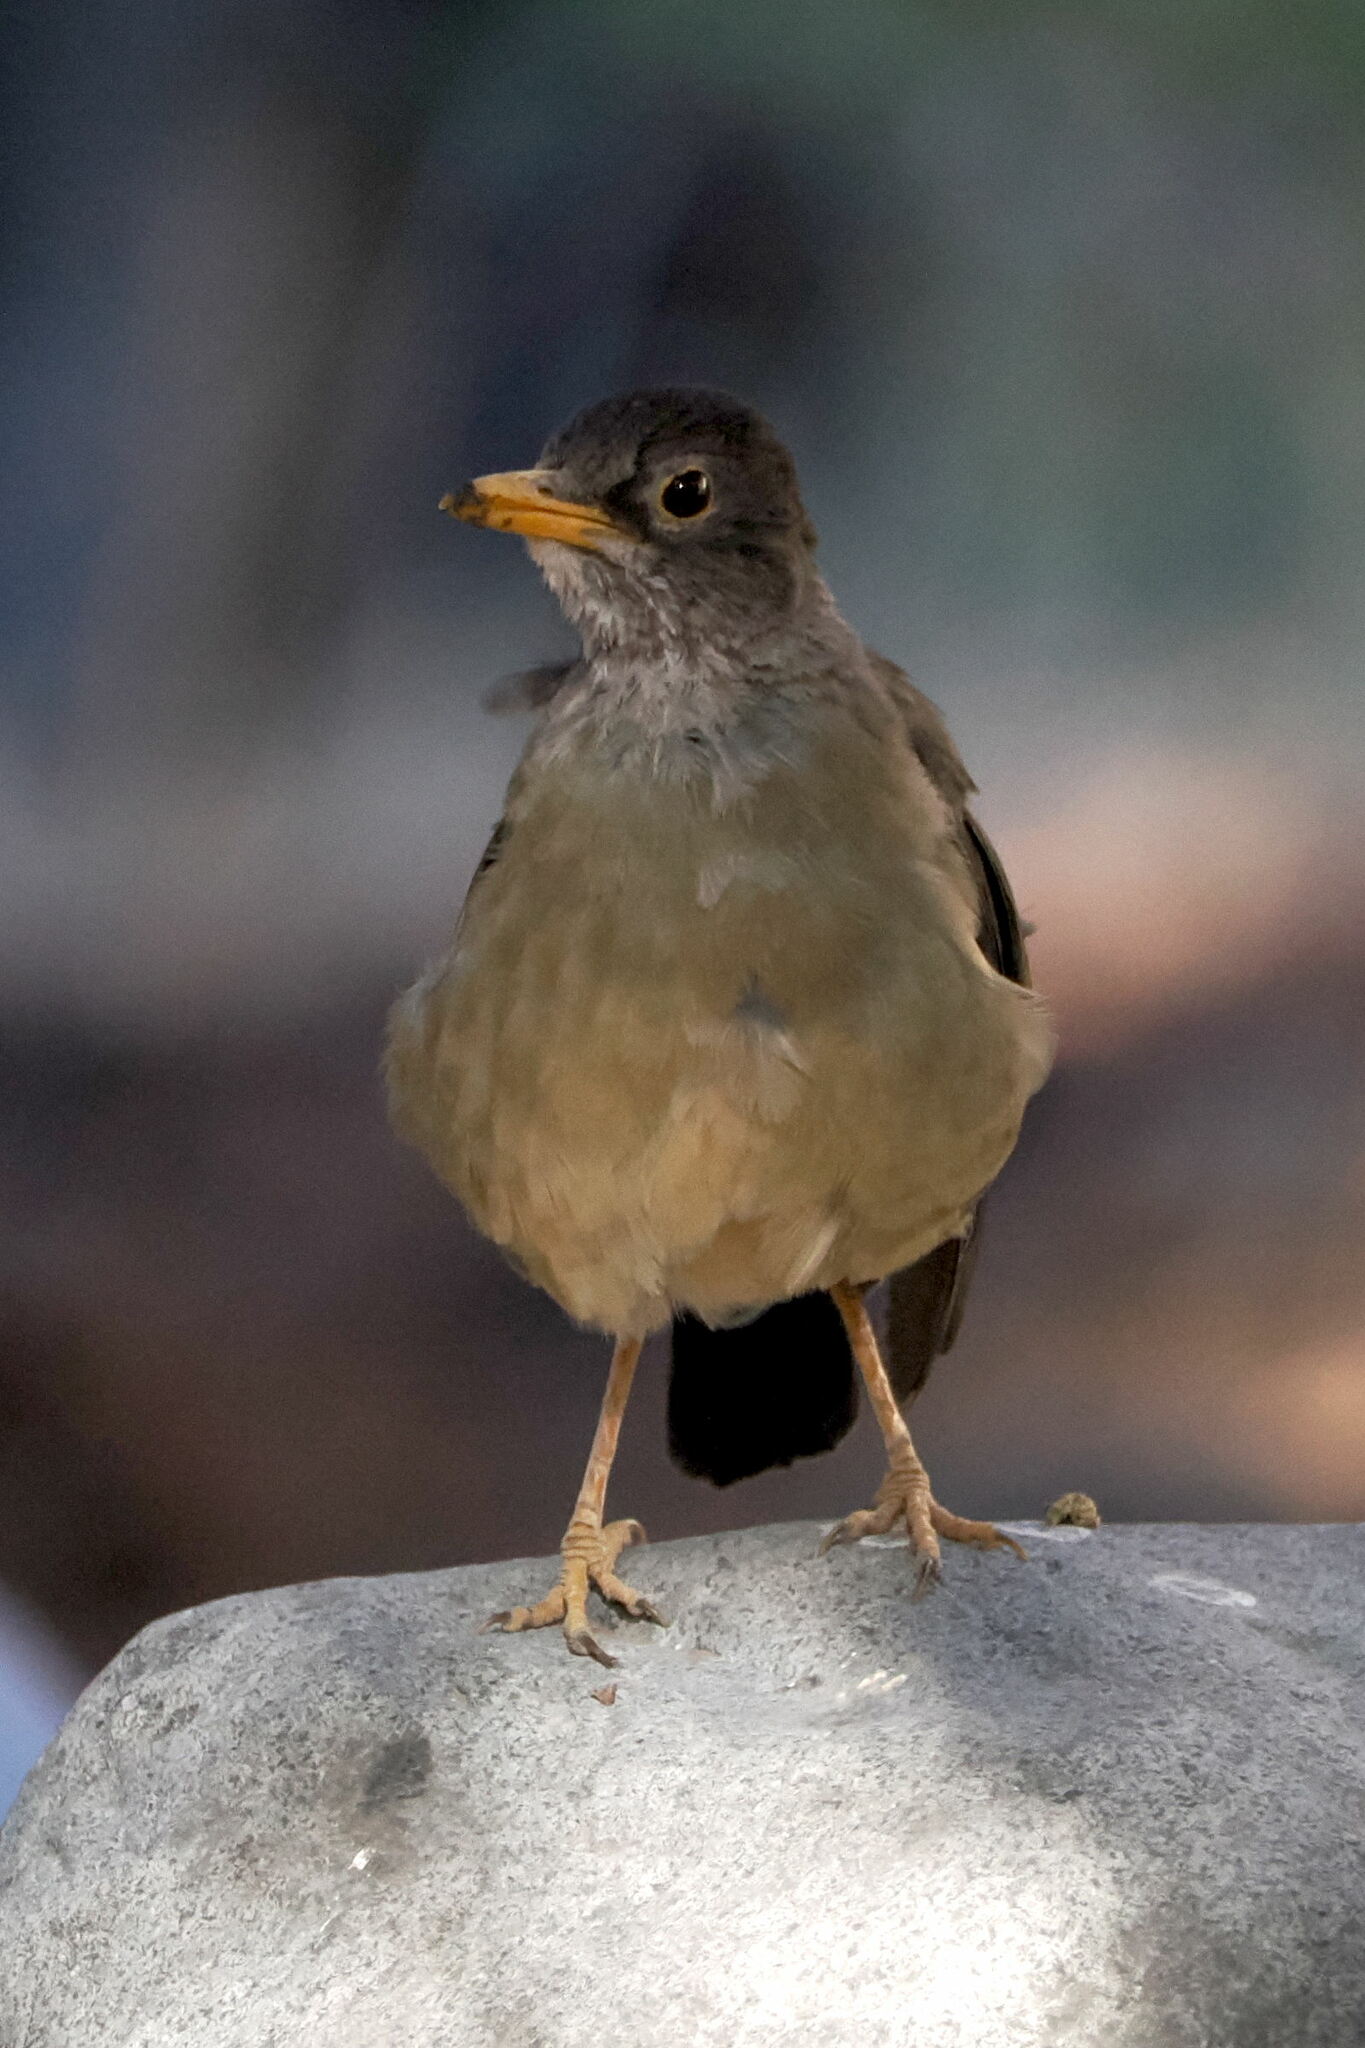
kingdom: Animalia
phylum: Chordata
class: Aves
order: Passeriformes
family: Turdidae
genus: Turdus
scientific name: Turdus falcklandii
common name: Austral thrush
